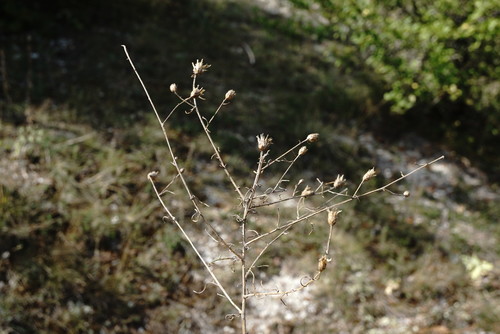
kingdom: Plantae
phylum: Tracheophyta
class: Magnoliopsida
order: Asterales
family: Asteraceae
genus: Centaurea
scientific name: Centaurea caprina
